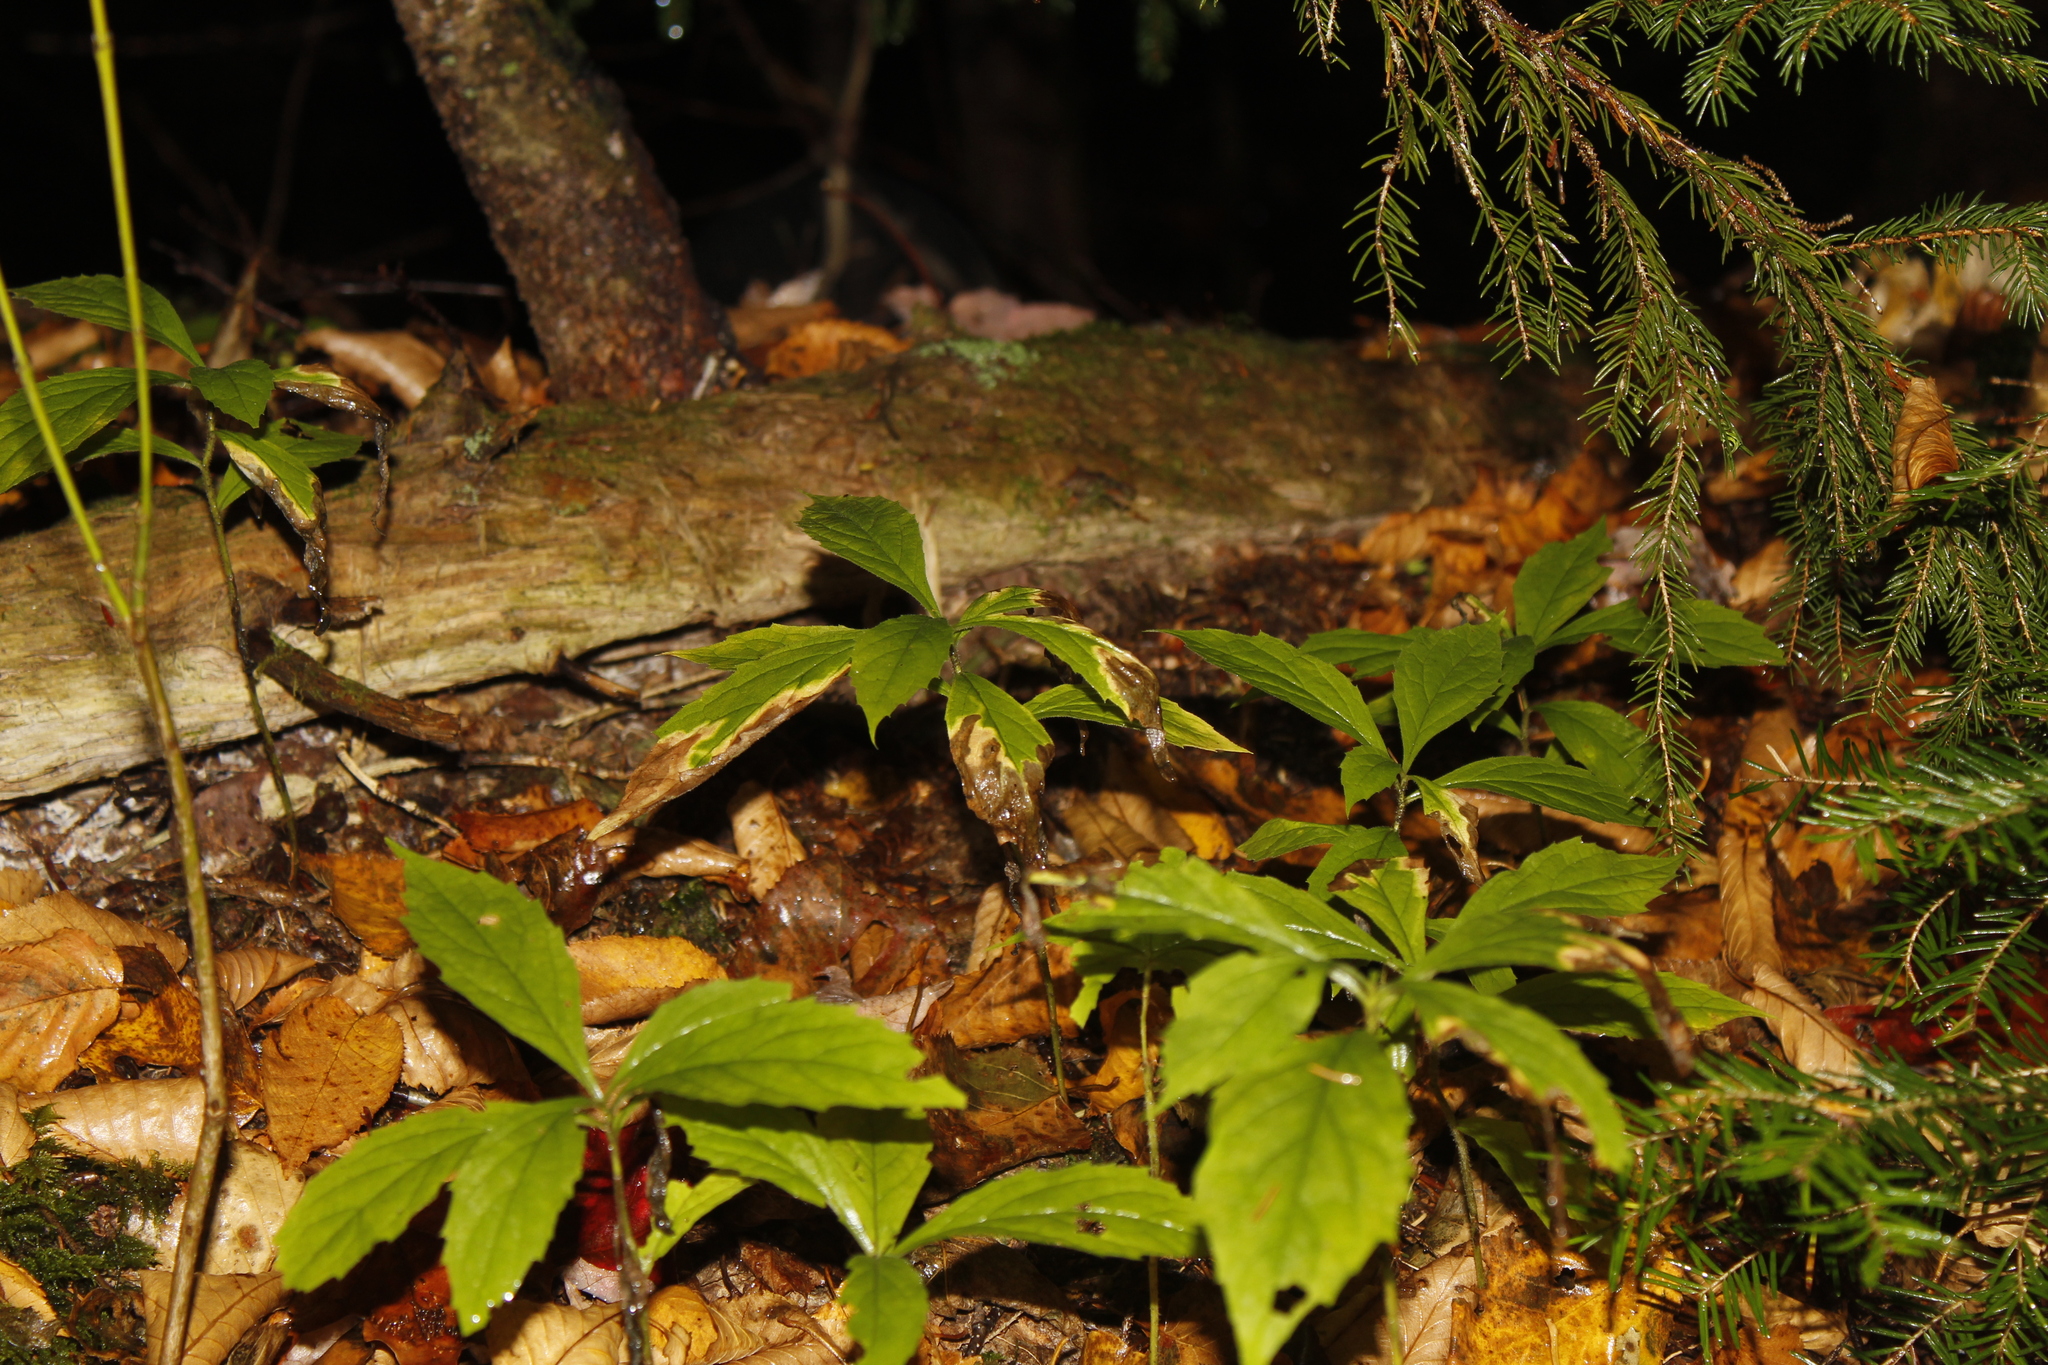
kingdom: Plantae
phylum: Tracheophyta
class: Magnoliopsida
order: Asterales
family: Asteraceae
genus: Oclemena
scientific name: Oclemena acuminata
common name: Mountain aster
